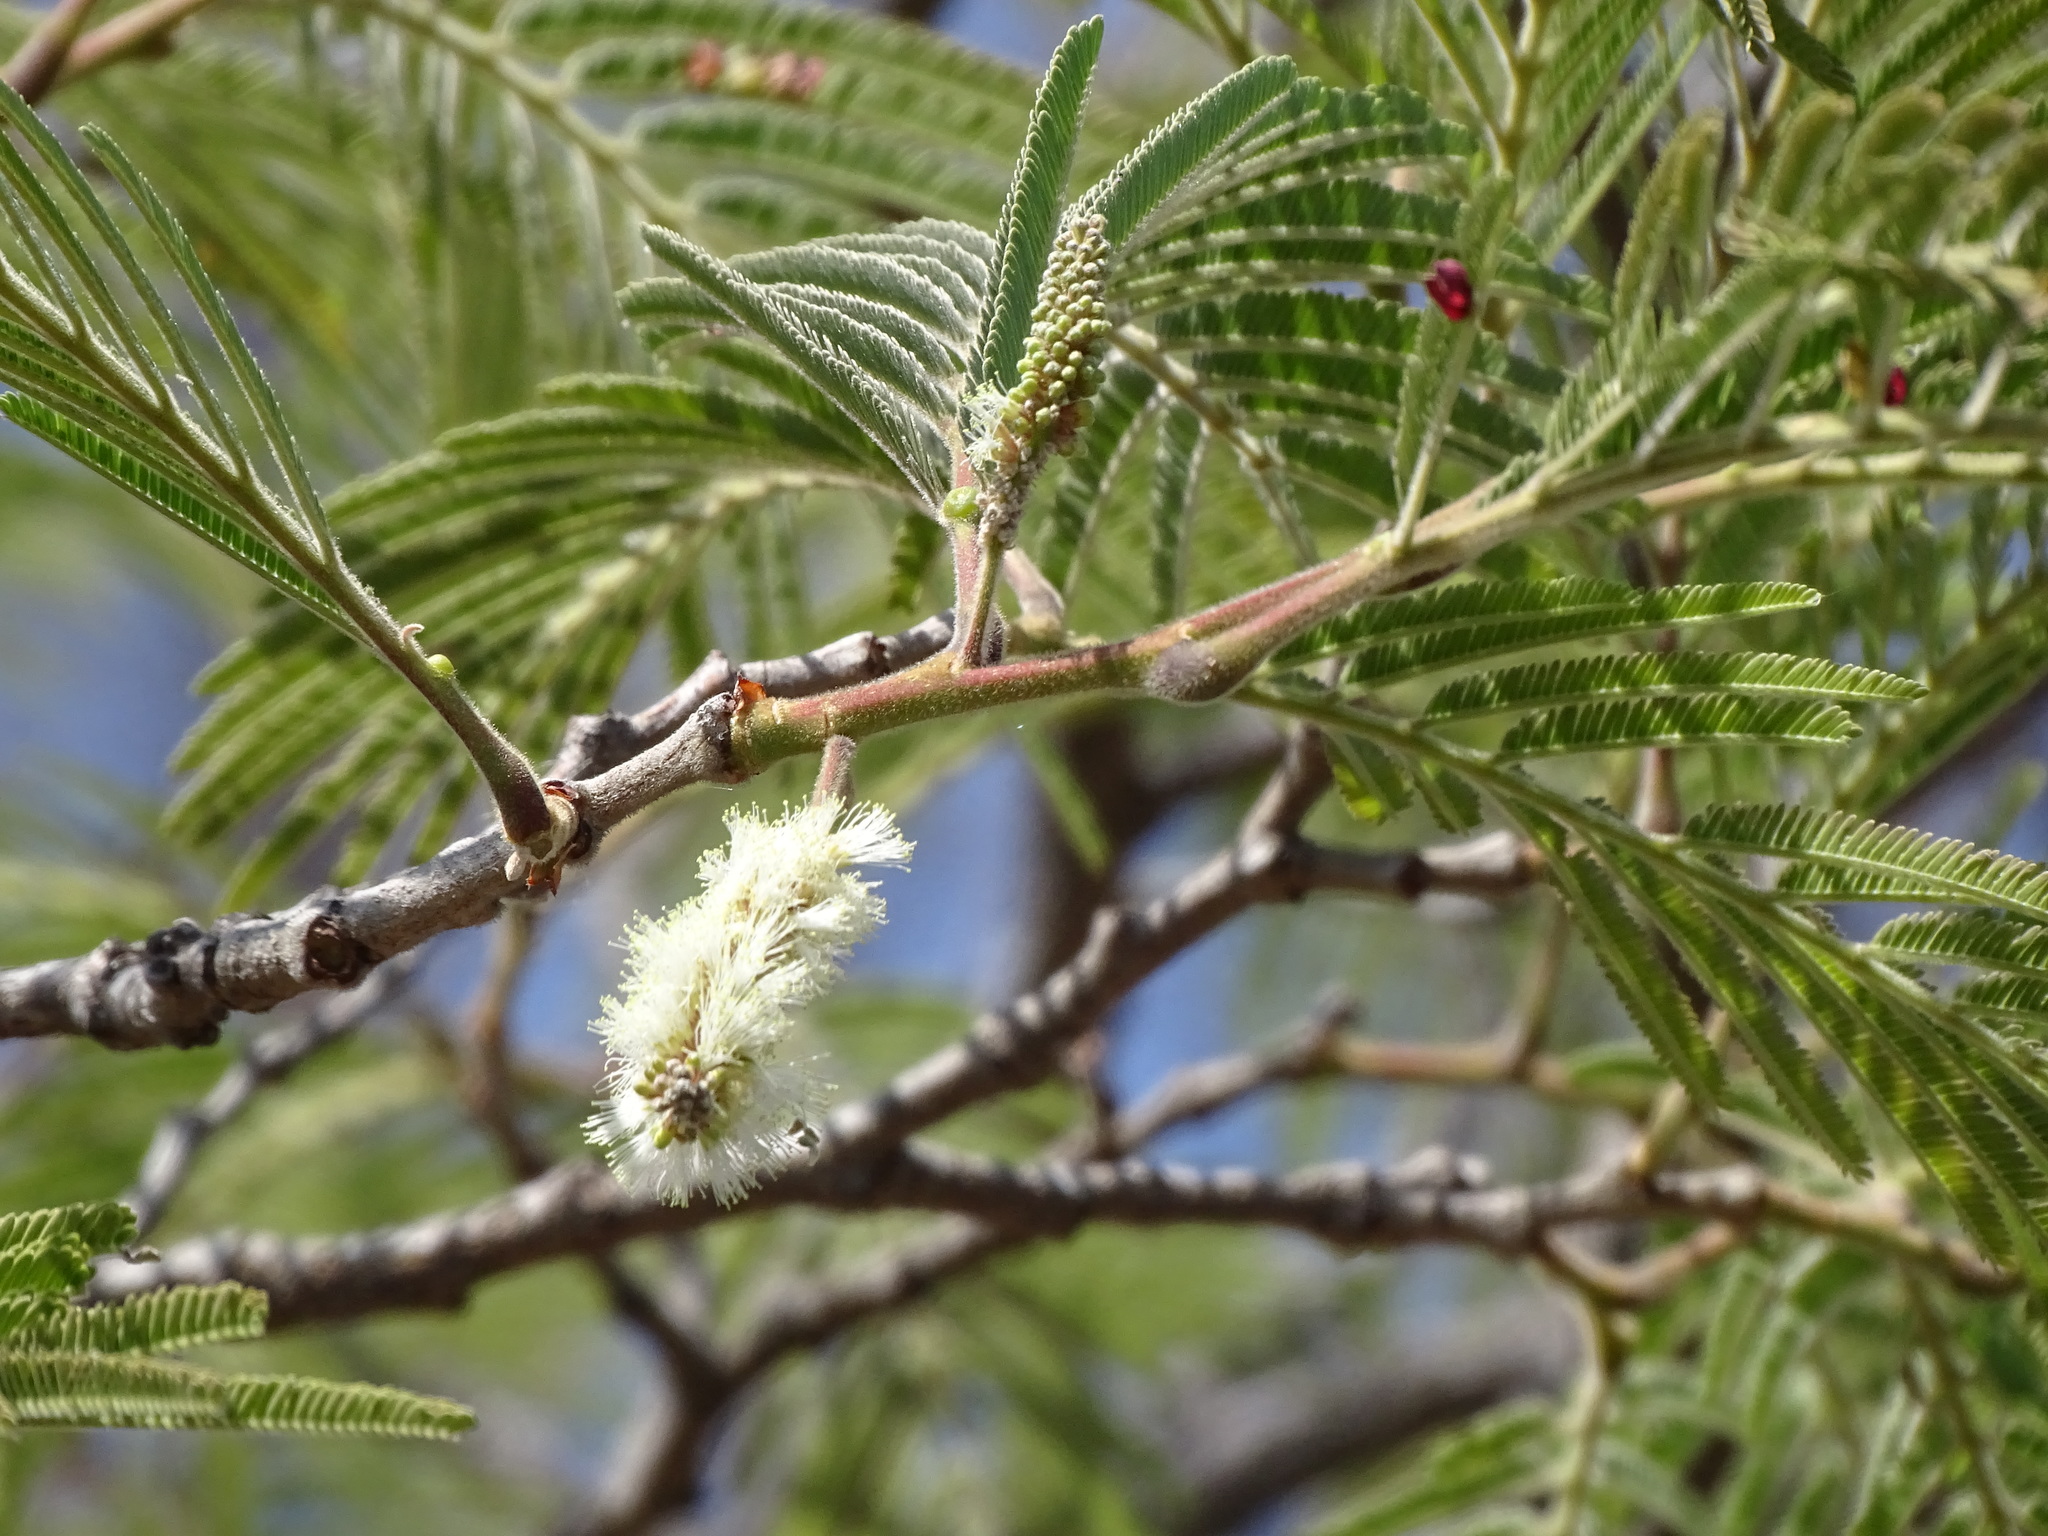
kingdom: Plantae
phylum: Tracheophyta
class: Magnoliopsida
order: Fabales
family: Fabaceae
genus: Mariosousa
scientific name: Mariosousa coulteri
